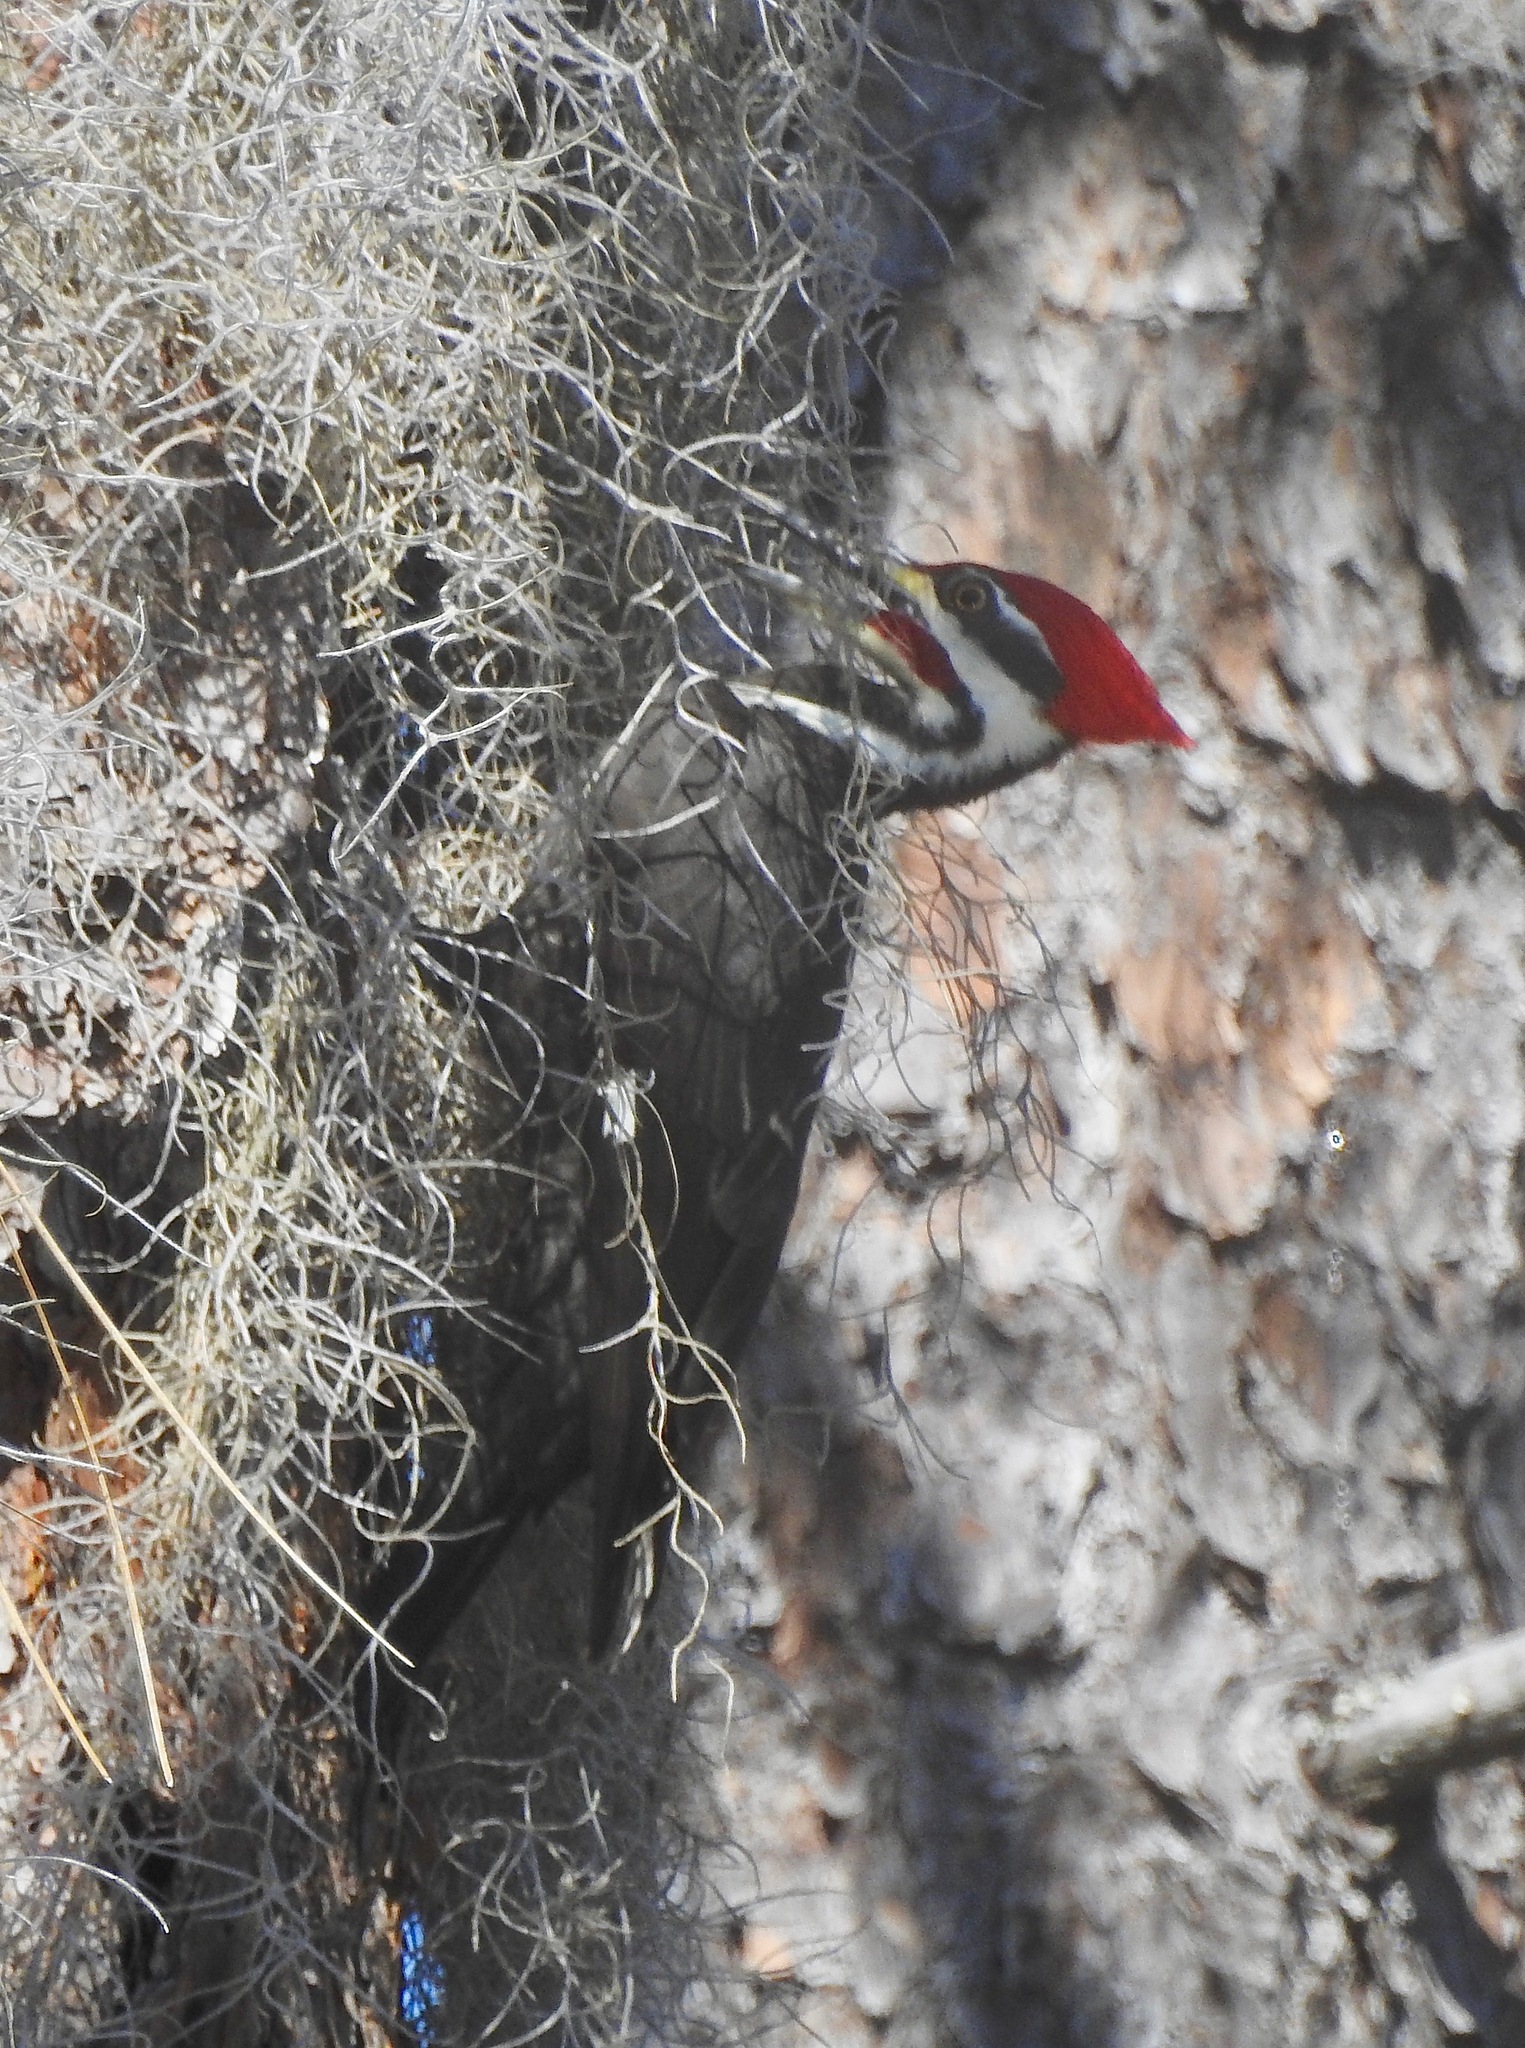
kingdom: Animalia
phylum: Chordata
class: Aves
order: Piciformes
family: Picidae
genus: Dryocopus
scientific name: Dryocopus pileatus
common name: Pileated woodpecker
